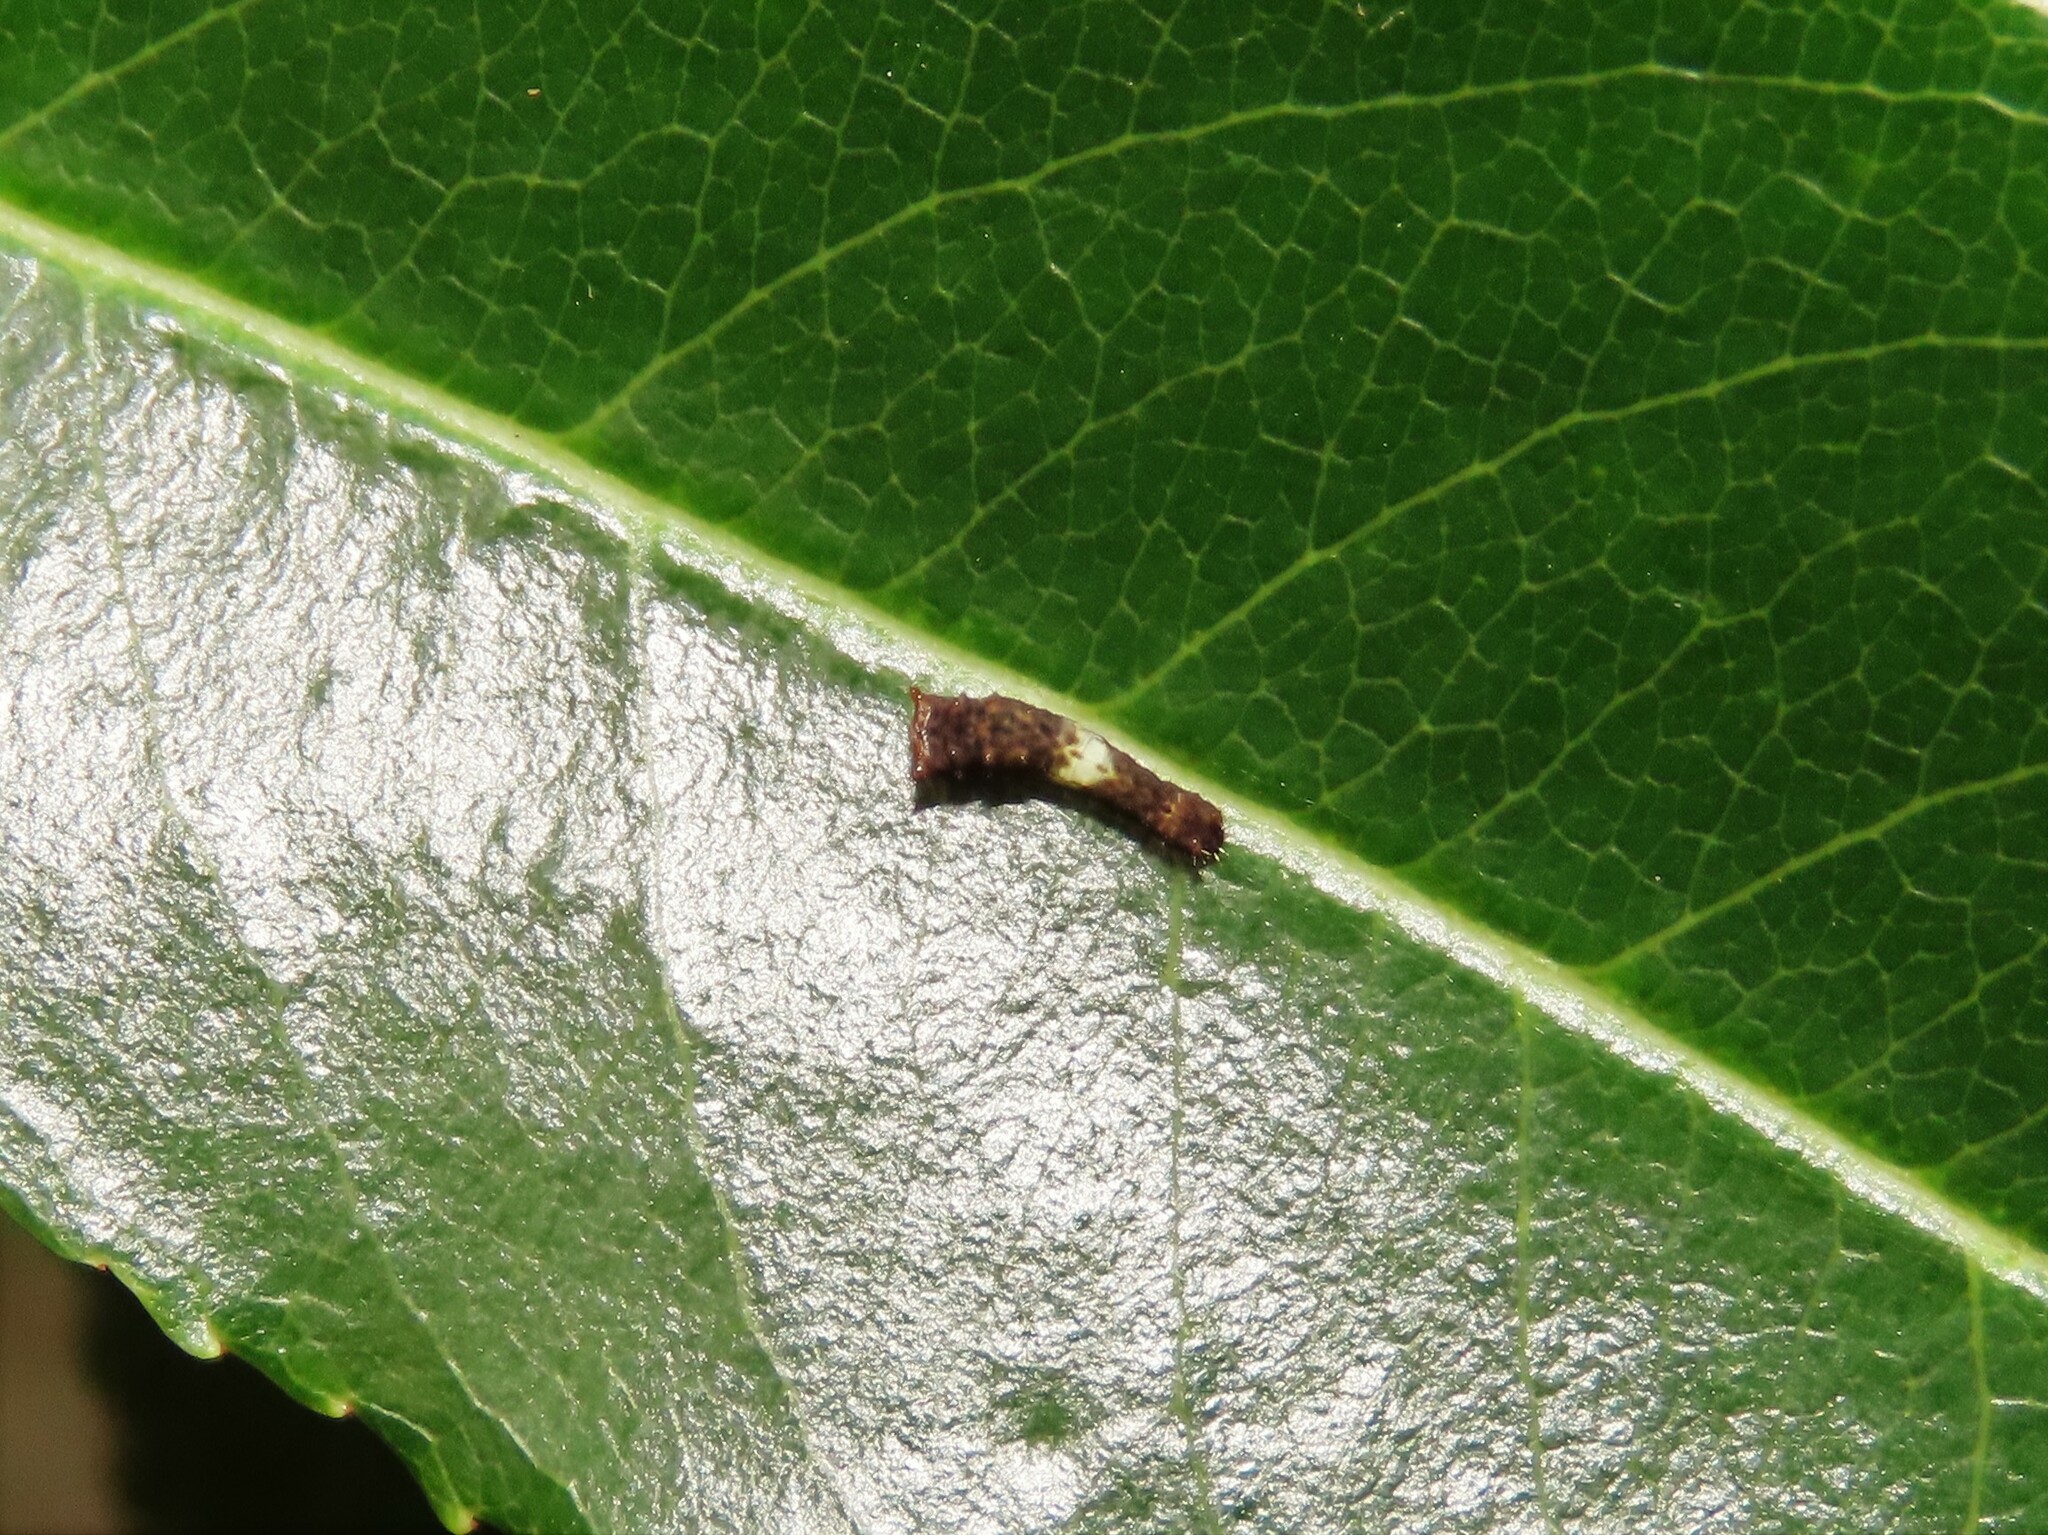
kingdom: Animalia
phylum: Arthropoda
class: Insecta
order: Lepidoptera
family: Papilionidae
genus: Papilio
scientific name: Papilio glaucus
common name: Tiger swallowtail
